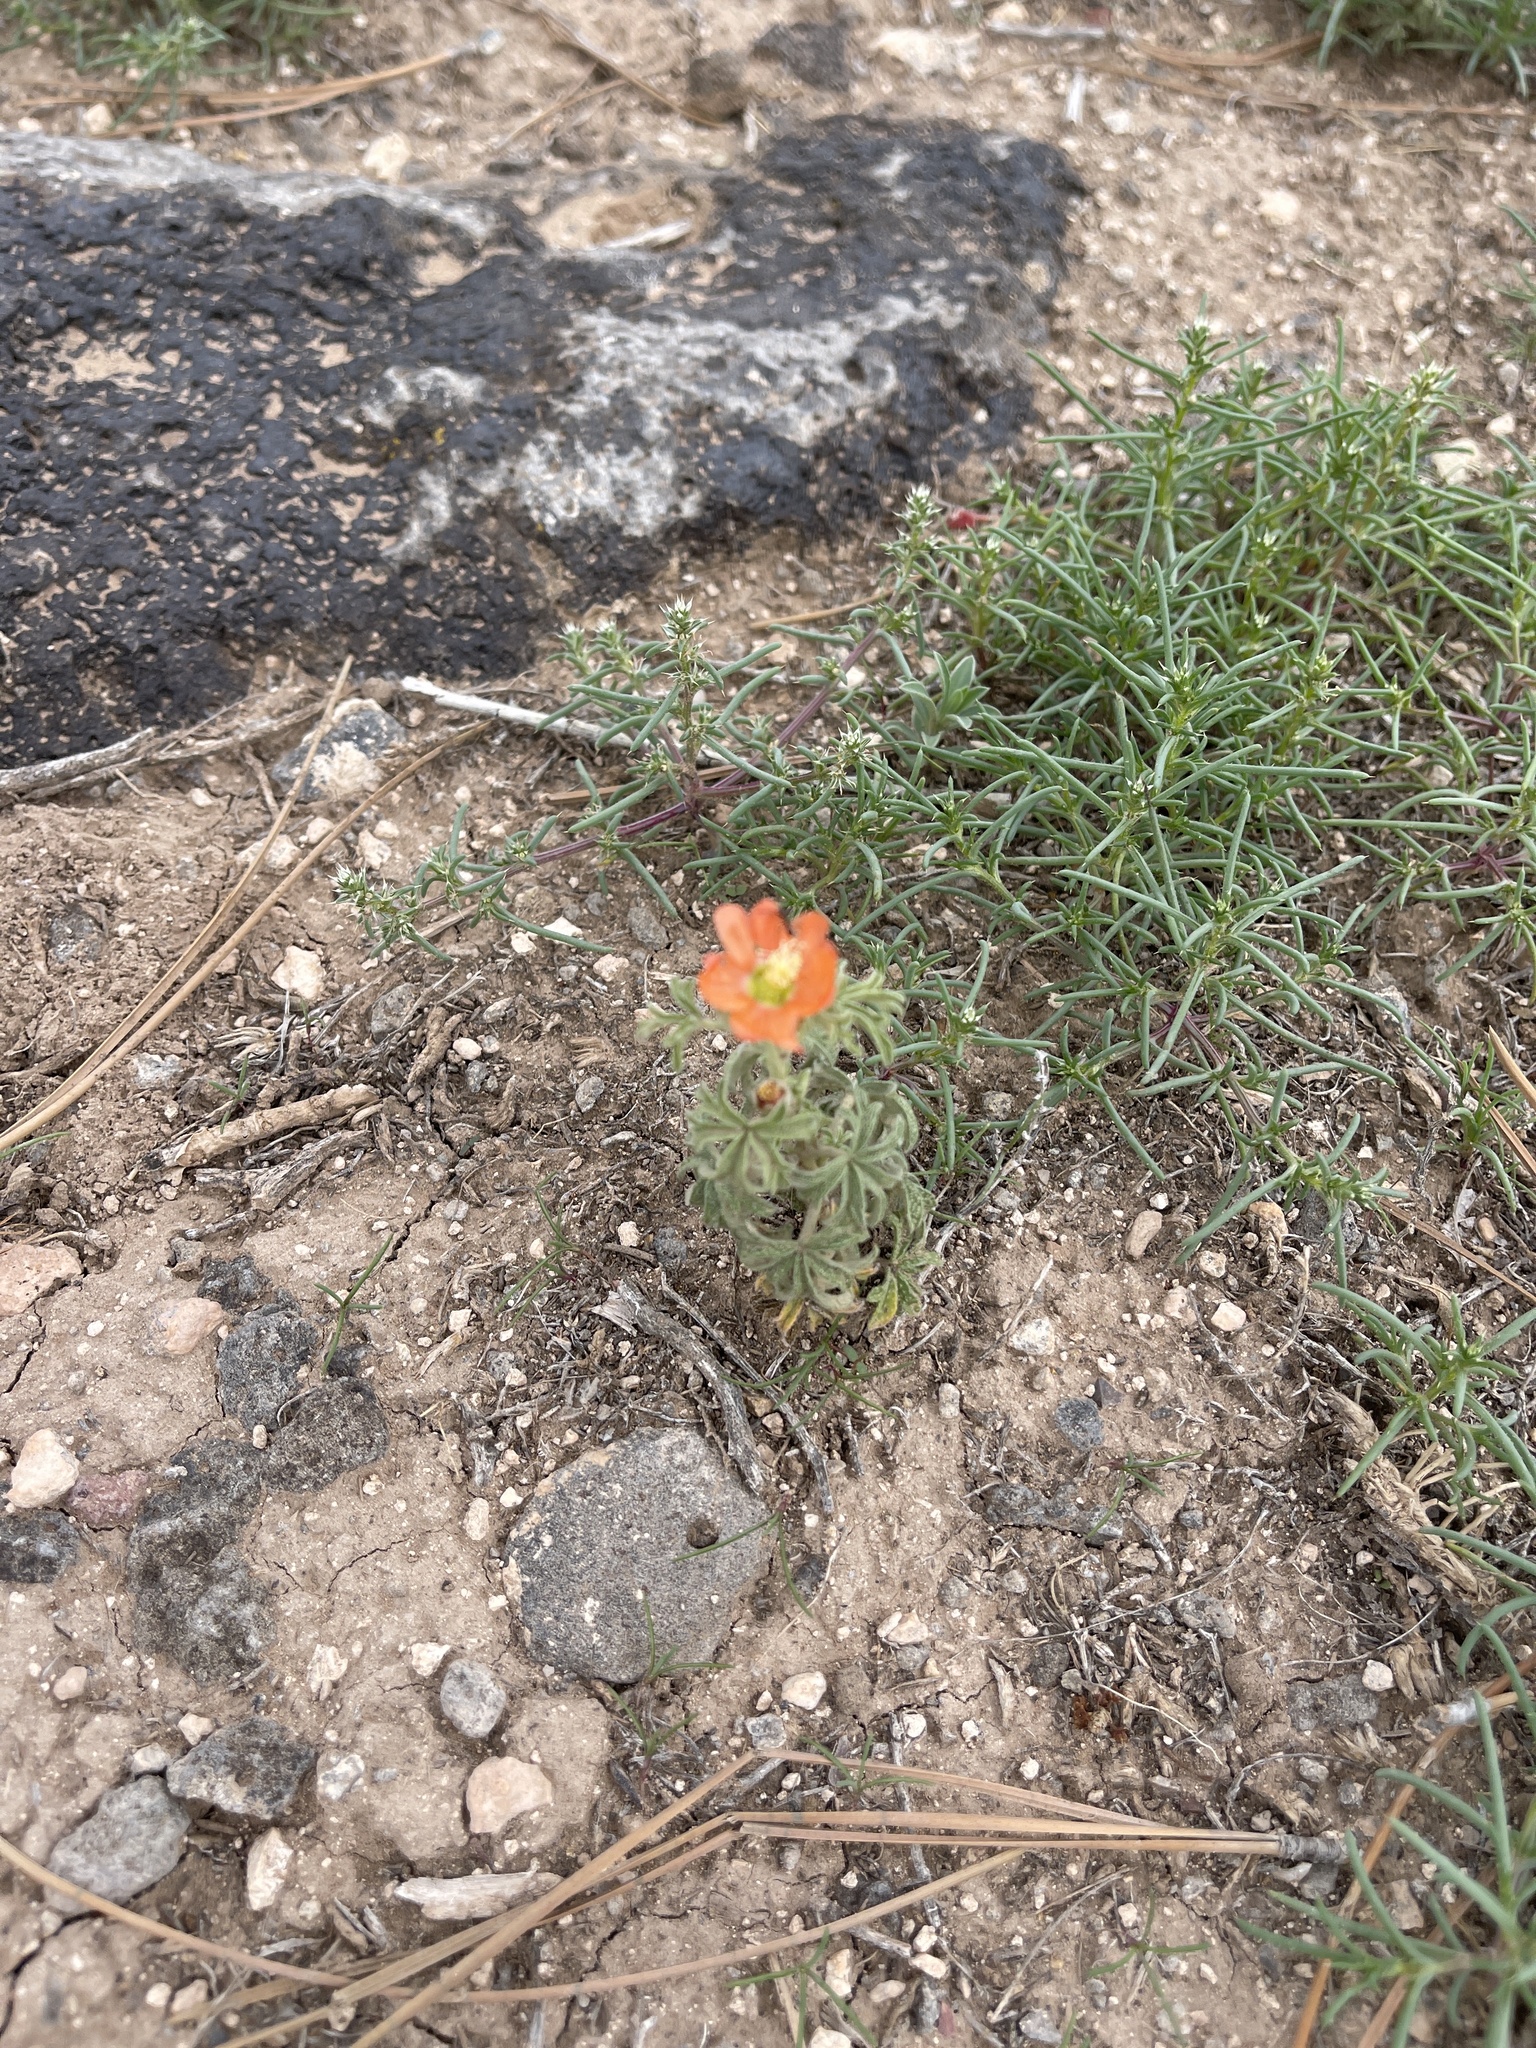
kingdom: Plantae
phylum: Tracheophyta
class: Magnoliopsida
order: Malvales
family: Malvaceae
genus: Sphaeralcea
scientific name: Sphaeralcea coccinea
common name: Moss-rose
